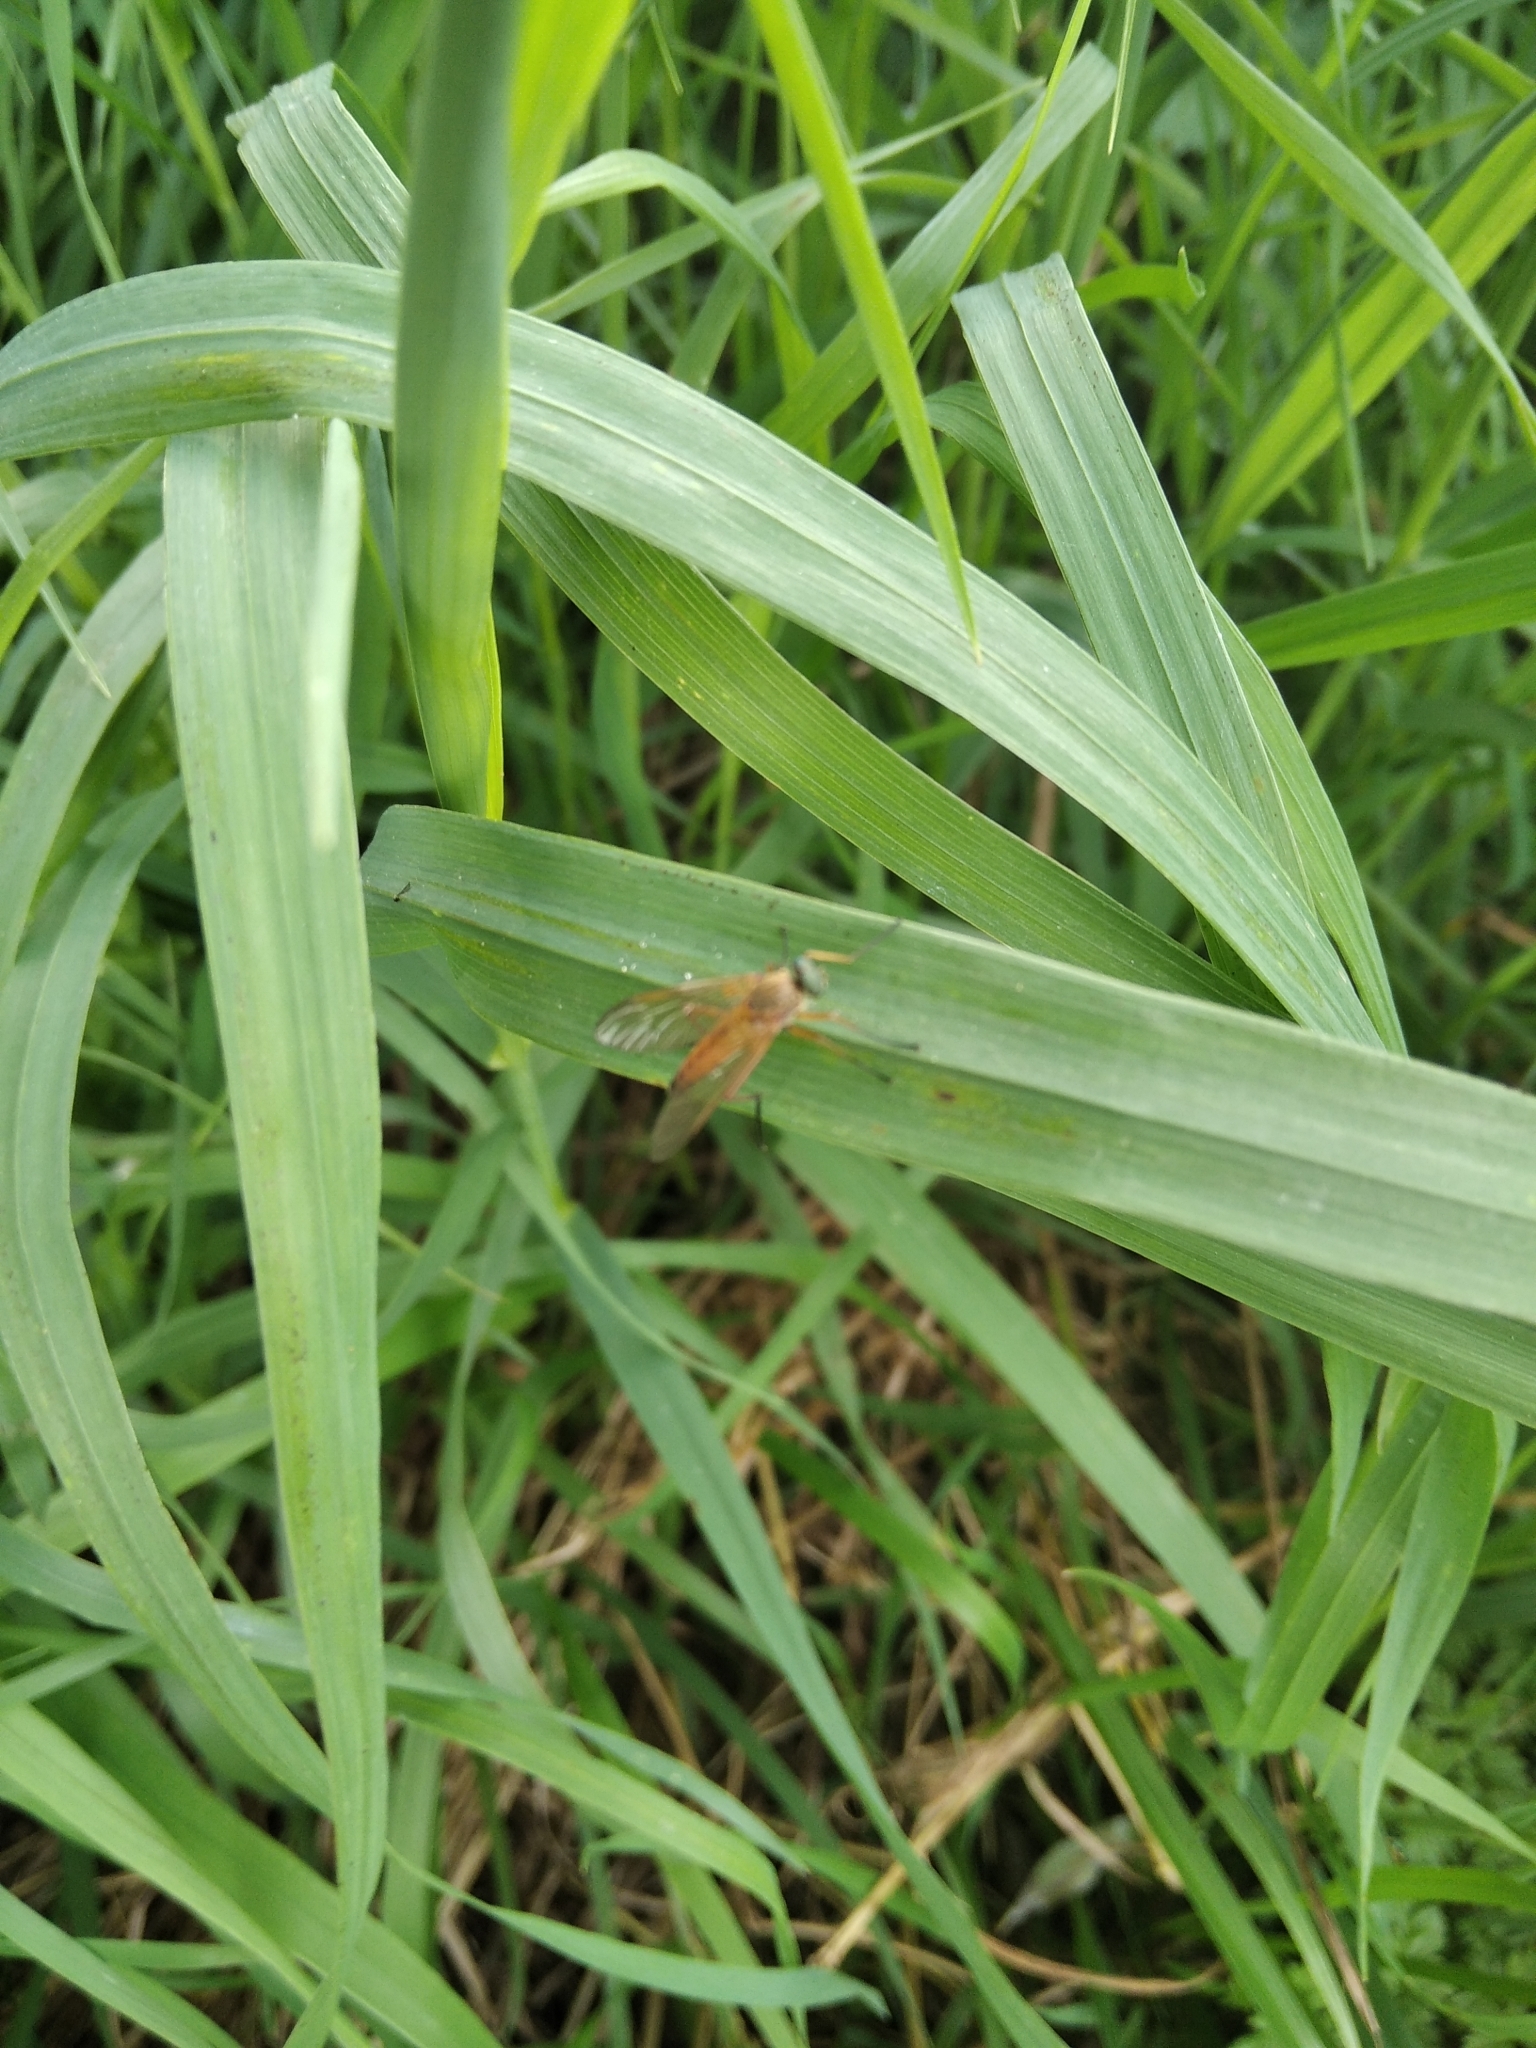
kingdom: Animalia
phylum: Arthropoda
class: Insecta
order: Diptera
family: Rhagionidae
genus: Rhagio
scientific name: Rhagio tringaria
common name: Marsh snipefly
